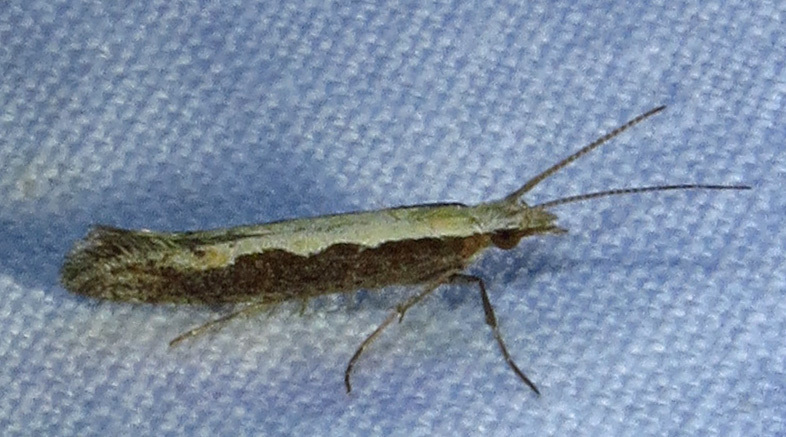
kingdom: Animalia
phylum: Arthropoda
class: Insecta
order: Lepidoptera
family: Plutellidae
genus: Plutella
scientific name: Plutella xylostella
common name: Diamond-back moth
